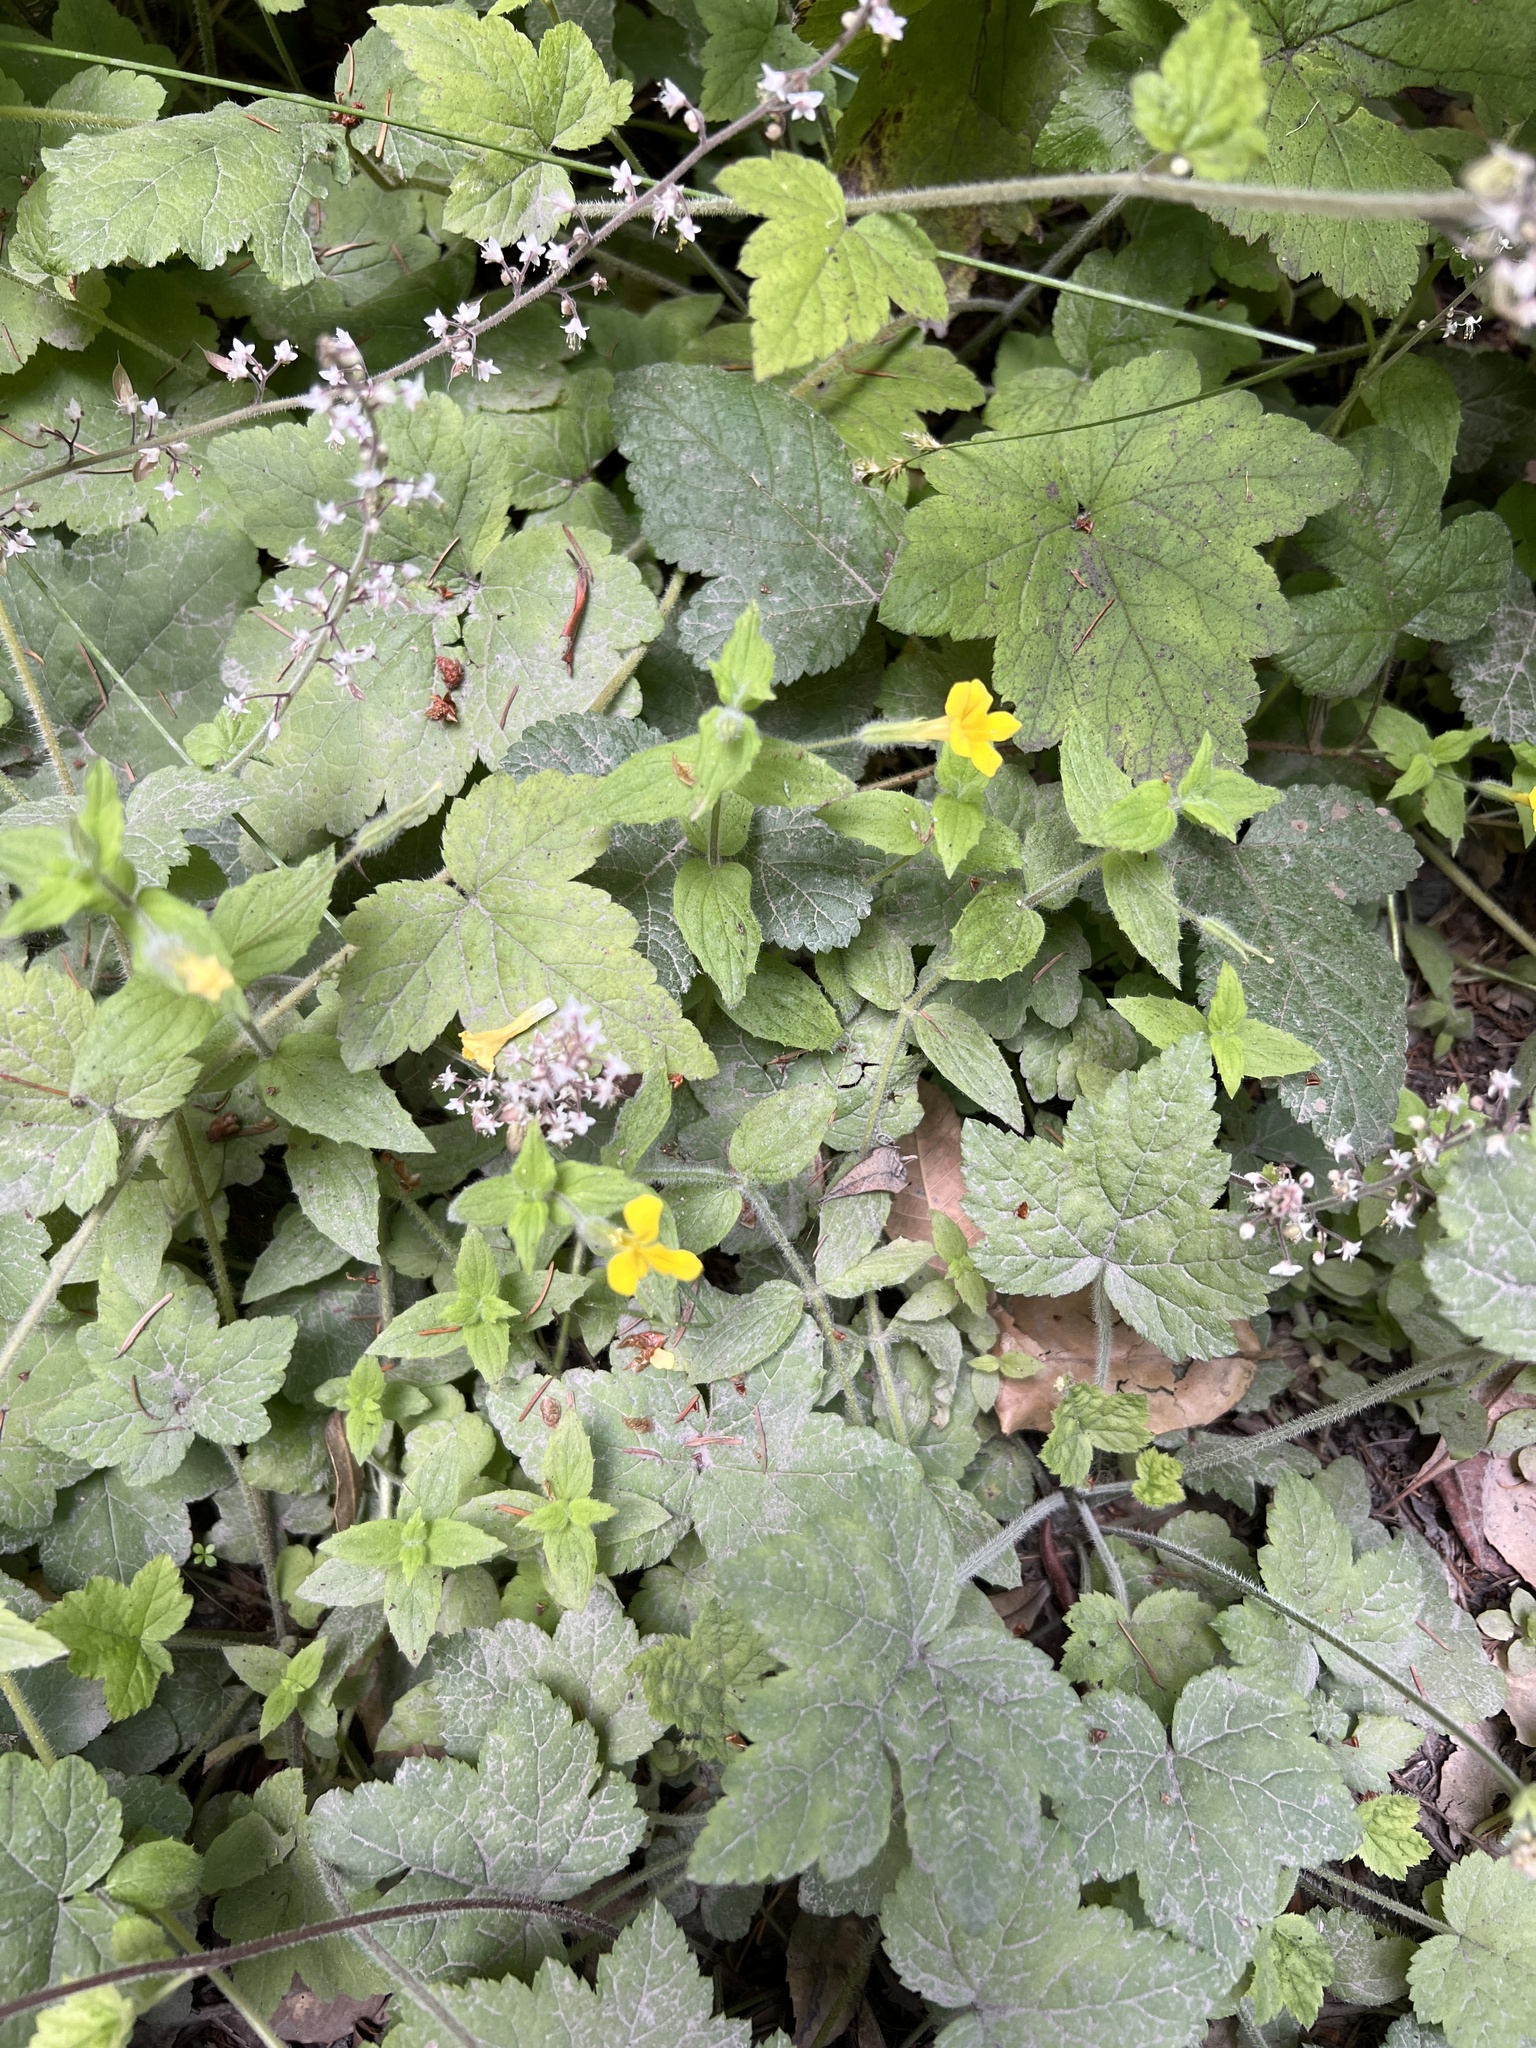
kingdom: Plantae
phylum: Tracheophyta
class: Magnoliopsida
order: Saxifragales
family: Saxifragaceae
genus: Tiarella
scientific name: Tiarella trifoliata
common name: Sugar-scoop
